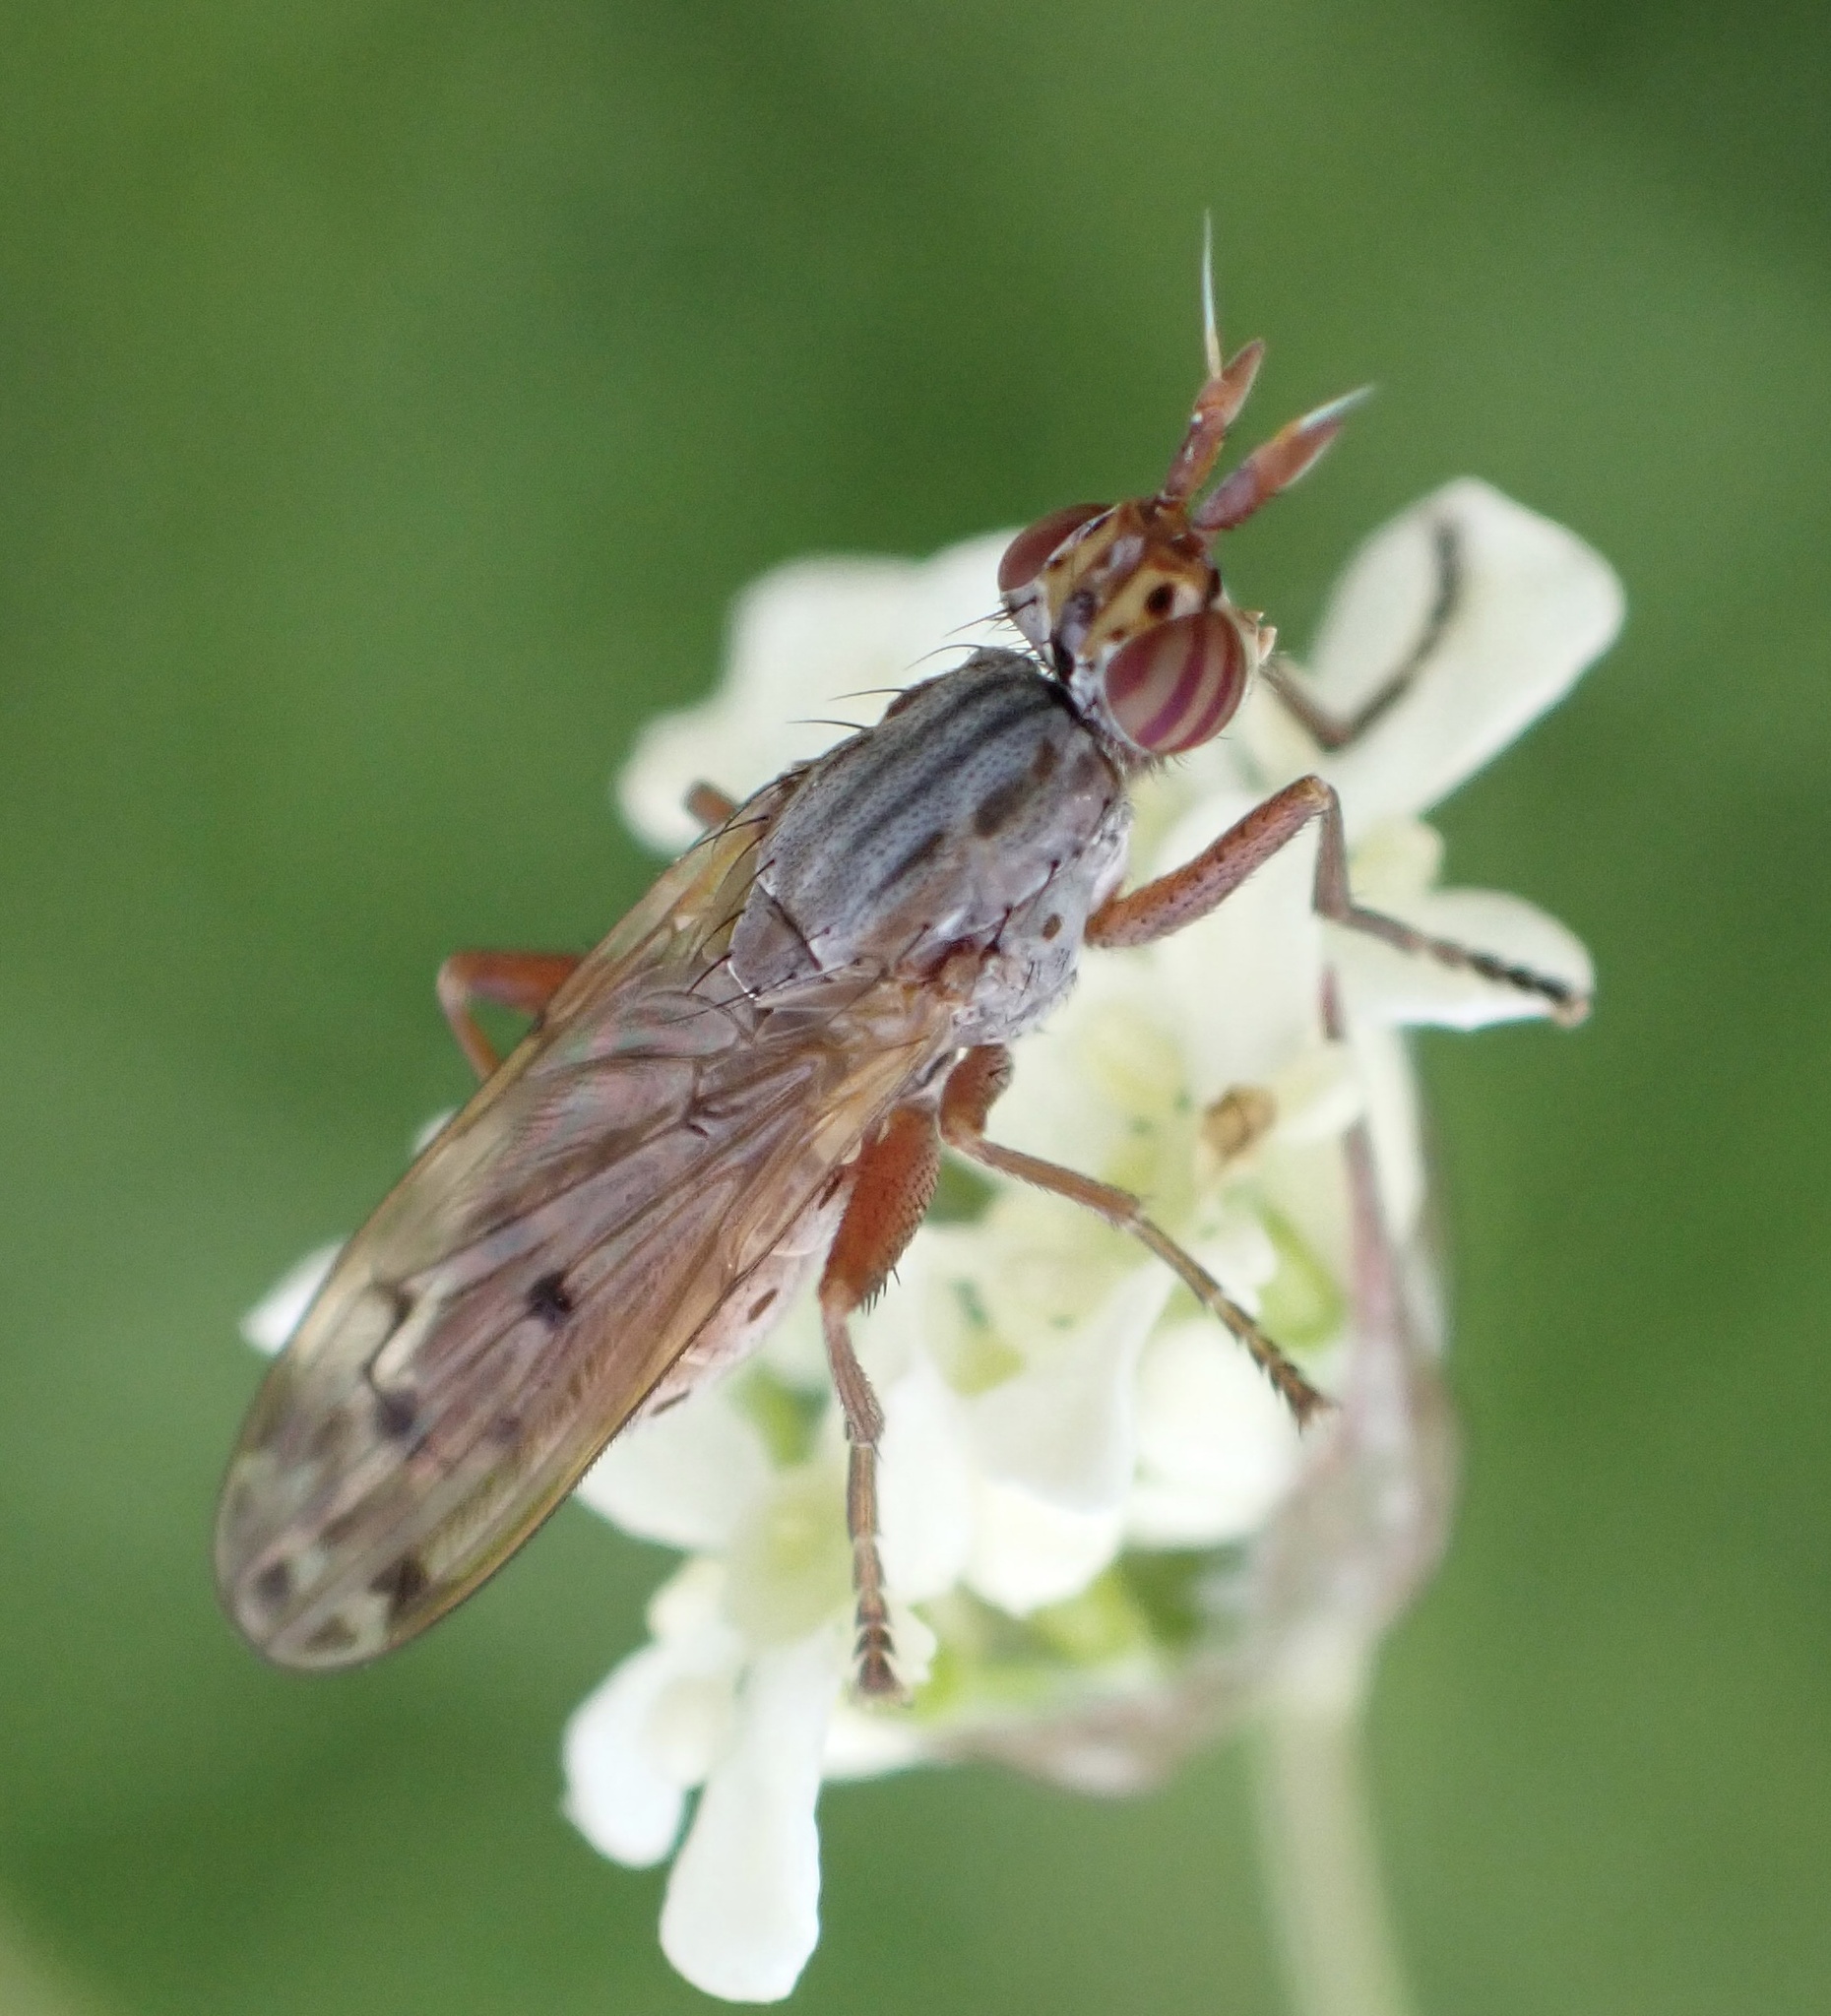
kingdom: Animalia
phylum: Arthropoda
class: Insecta
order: Diptera
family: Sciomyzidae
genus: Elgiva
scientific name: Elgiva cucularia
